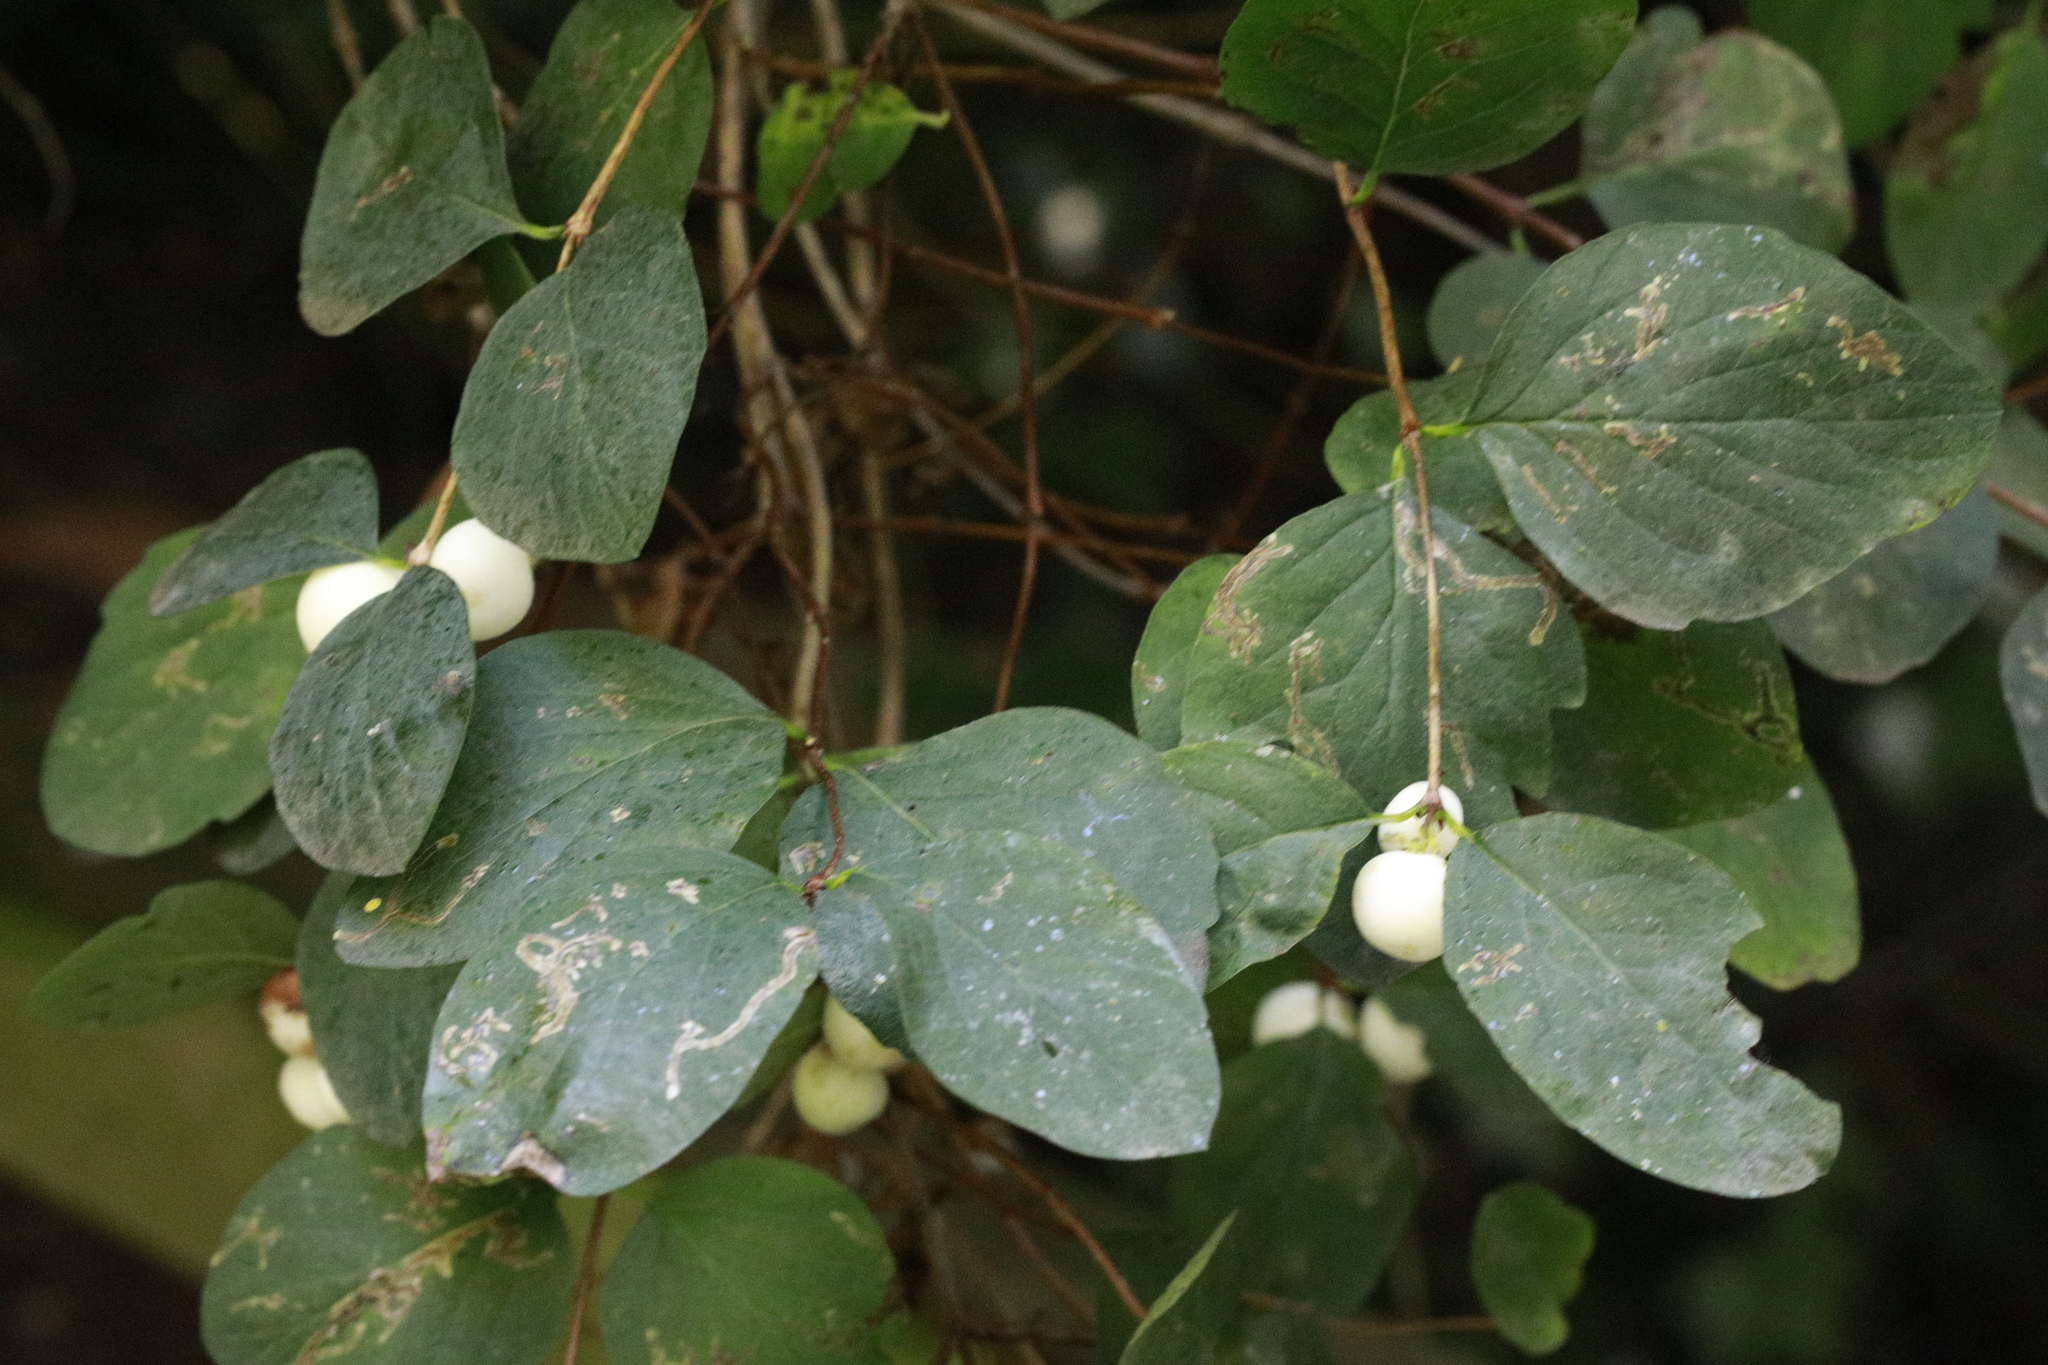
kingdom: Plantae
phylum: Tracheophyta
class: Magnoliopsida
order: Dipsacales
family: Caprifoliaceae
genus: Symphoricarpos
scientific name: Symphoricarpos albus
